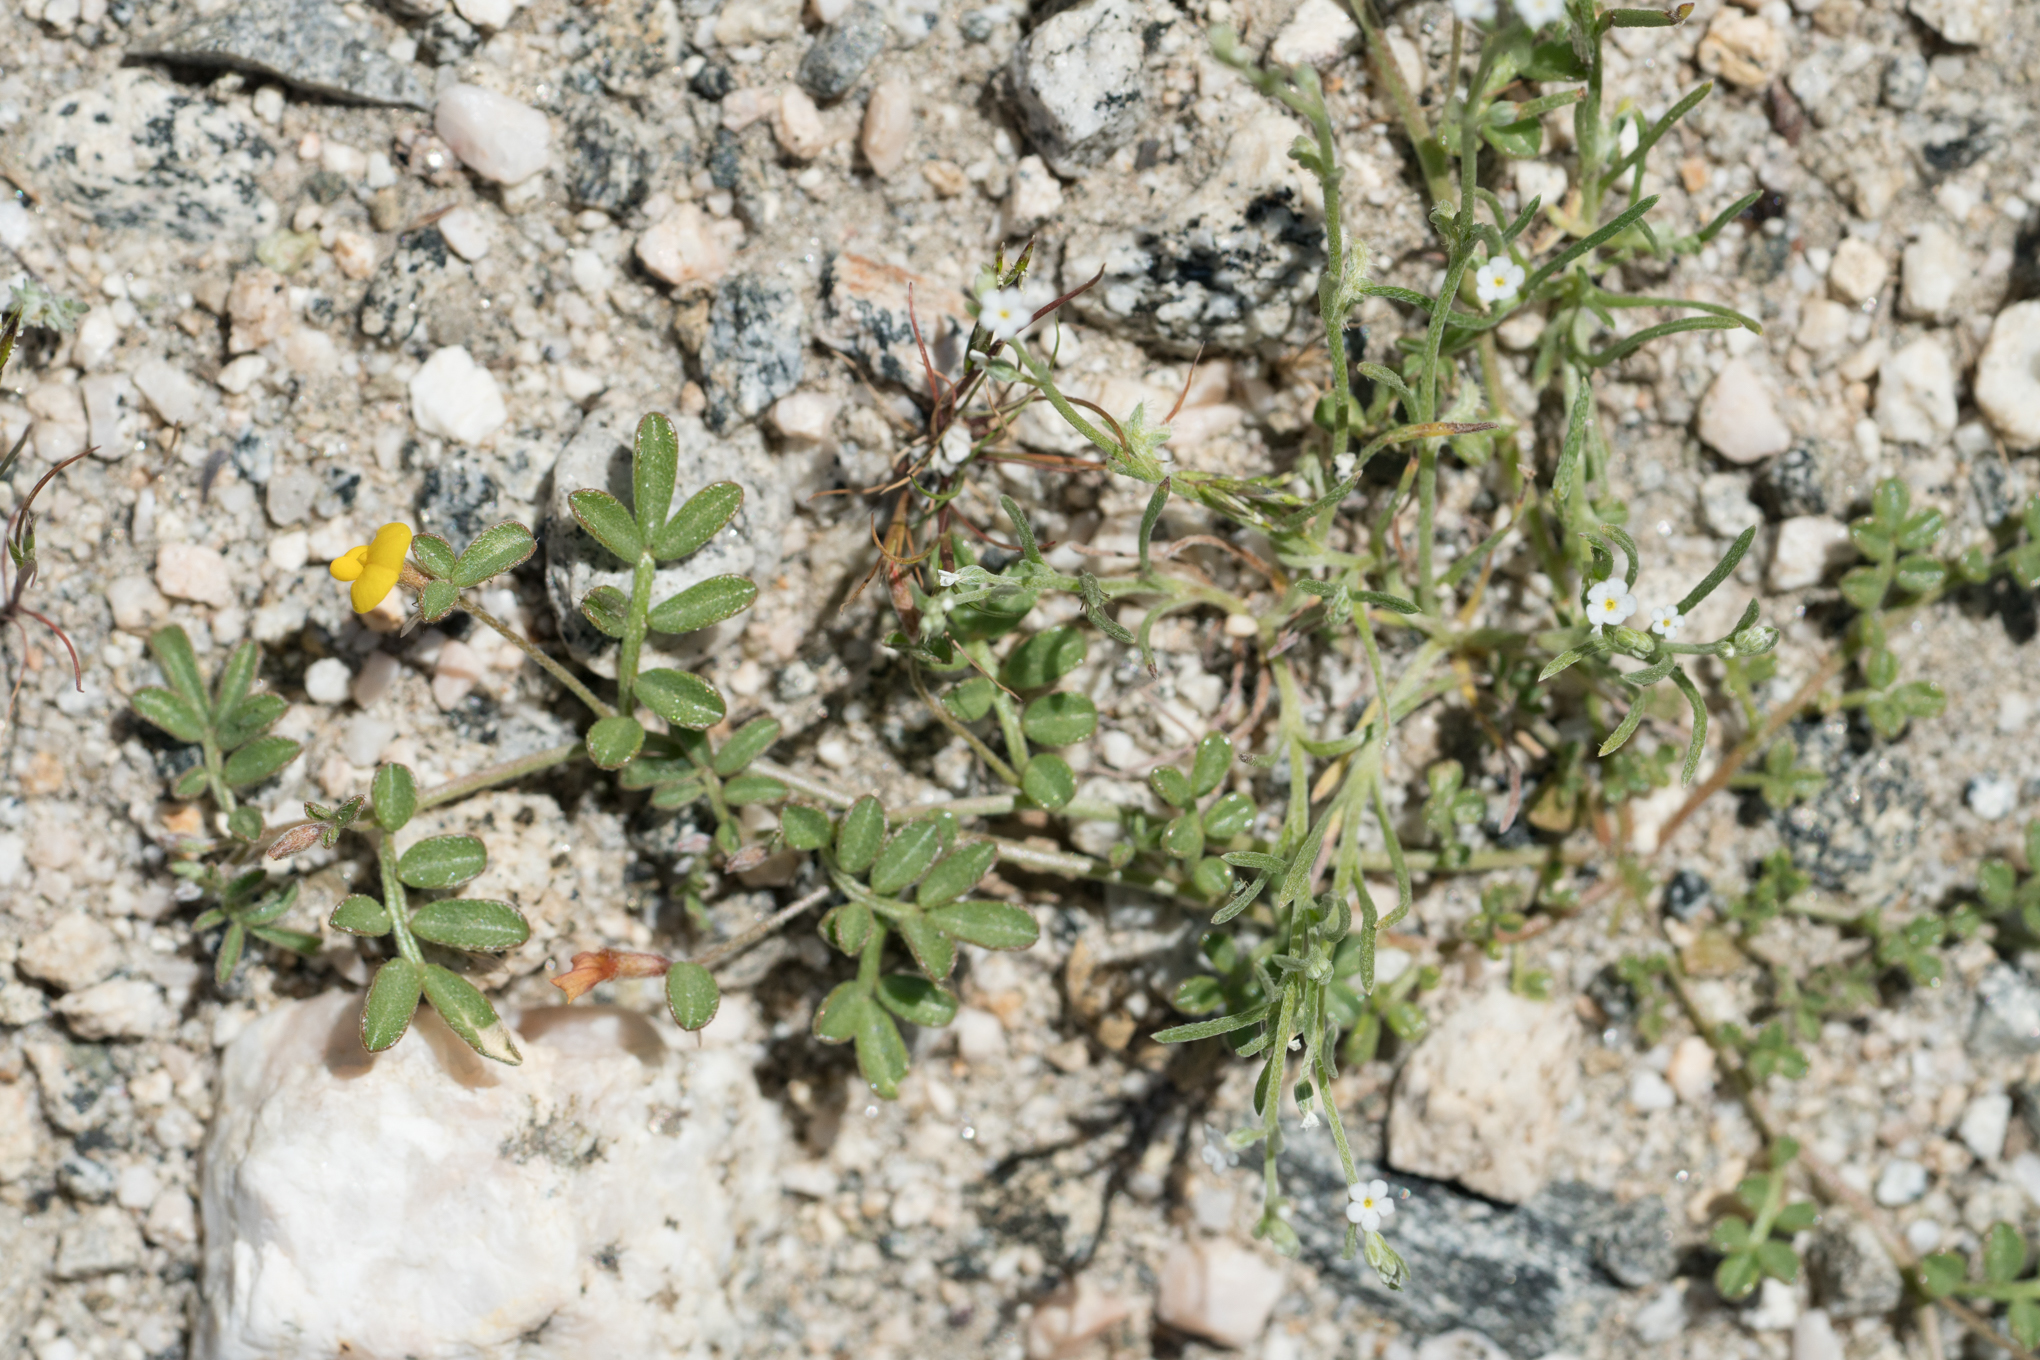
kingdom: Plantae
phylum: Tracheophyta
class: Magnoliopsida
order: Fabales
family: Fabaceae
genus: Acmispon
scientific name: Acmispon strigosus
